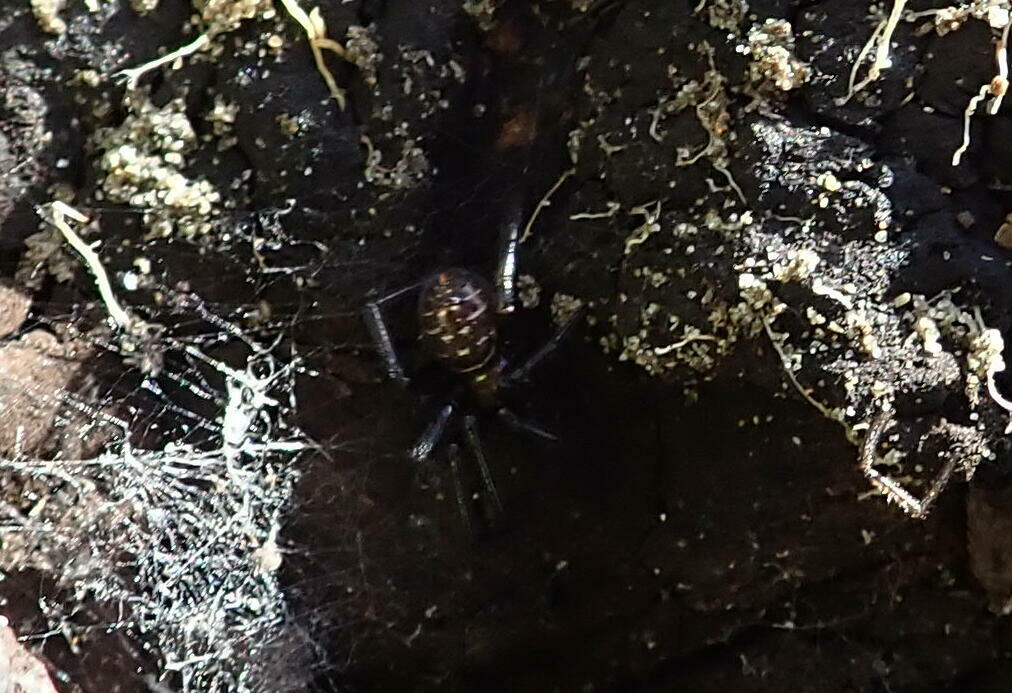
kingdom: Animalia
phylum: Arthropoda
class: Arachnida
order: Araneae
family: Theridiidae
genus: Steatoda
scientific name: Steatoda capensis
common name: Cobweb weaver
